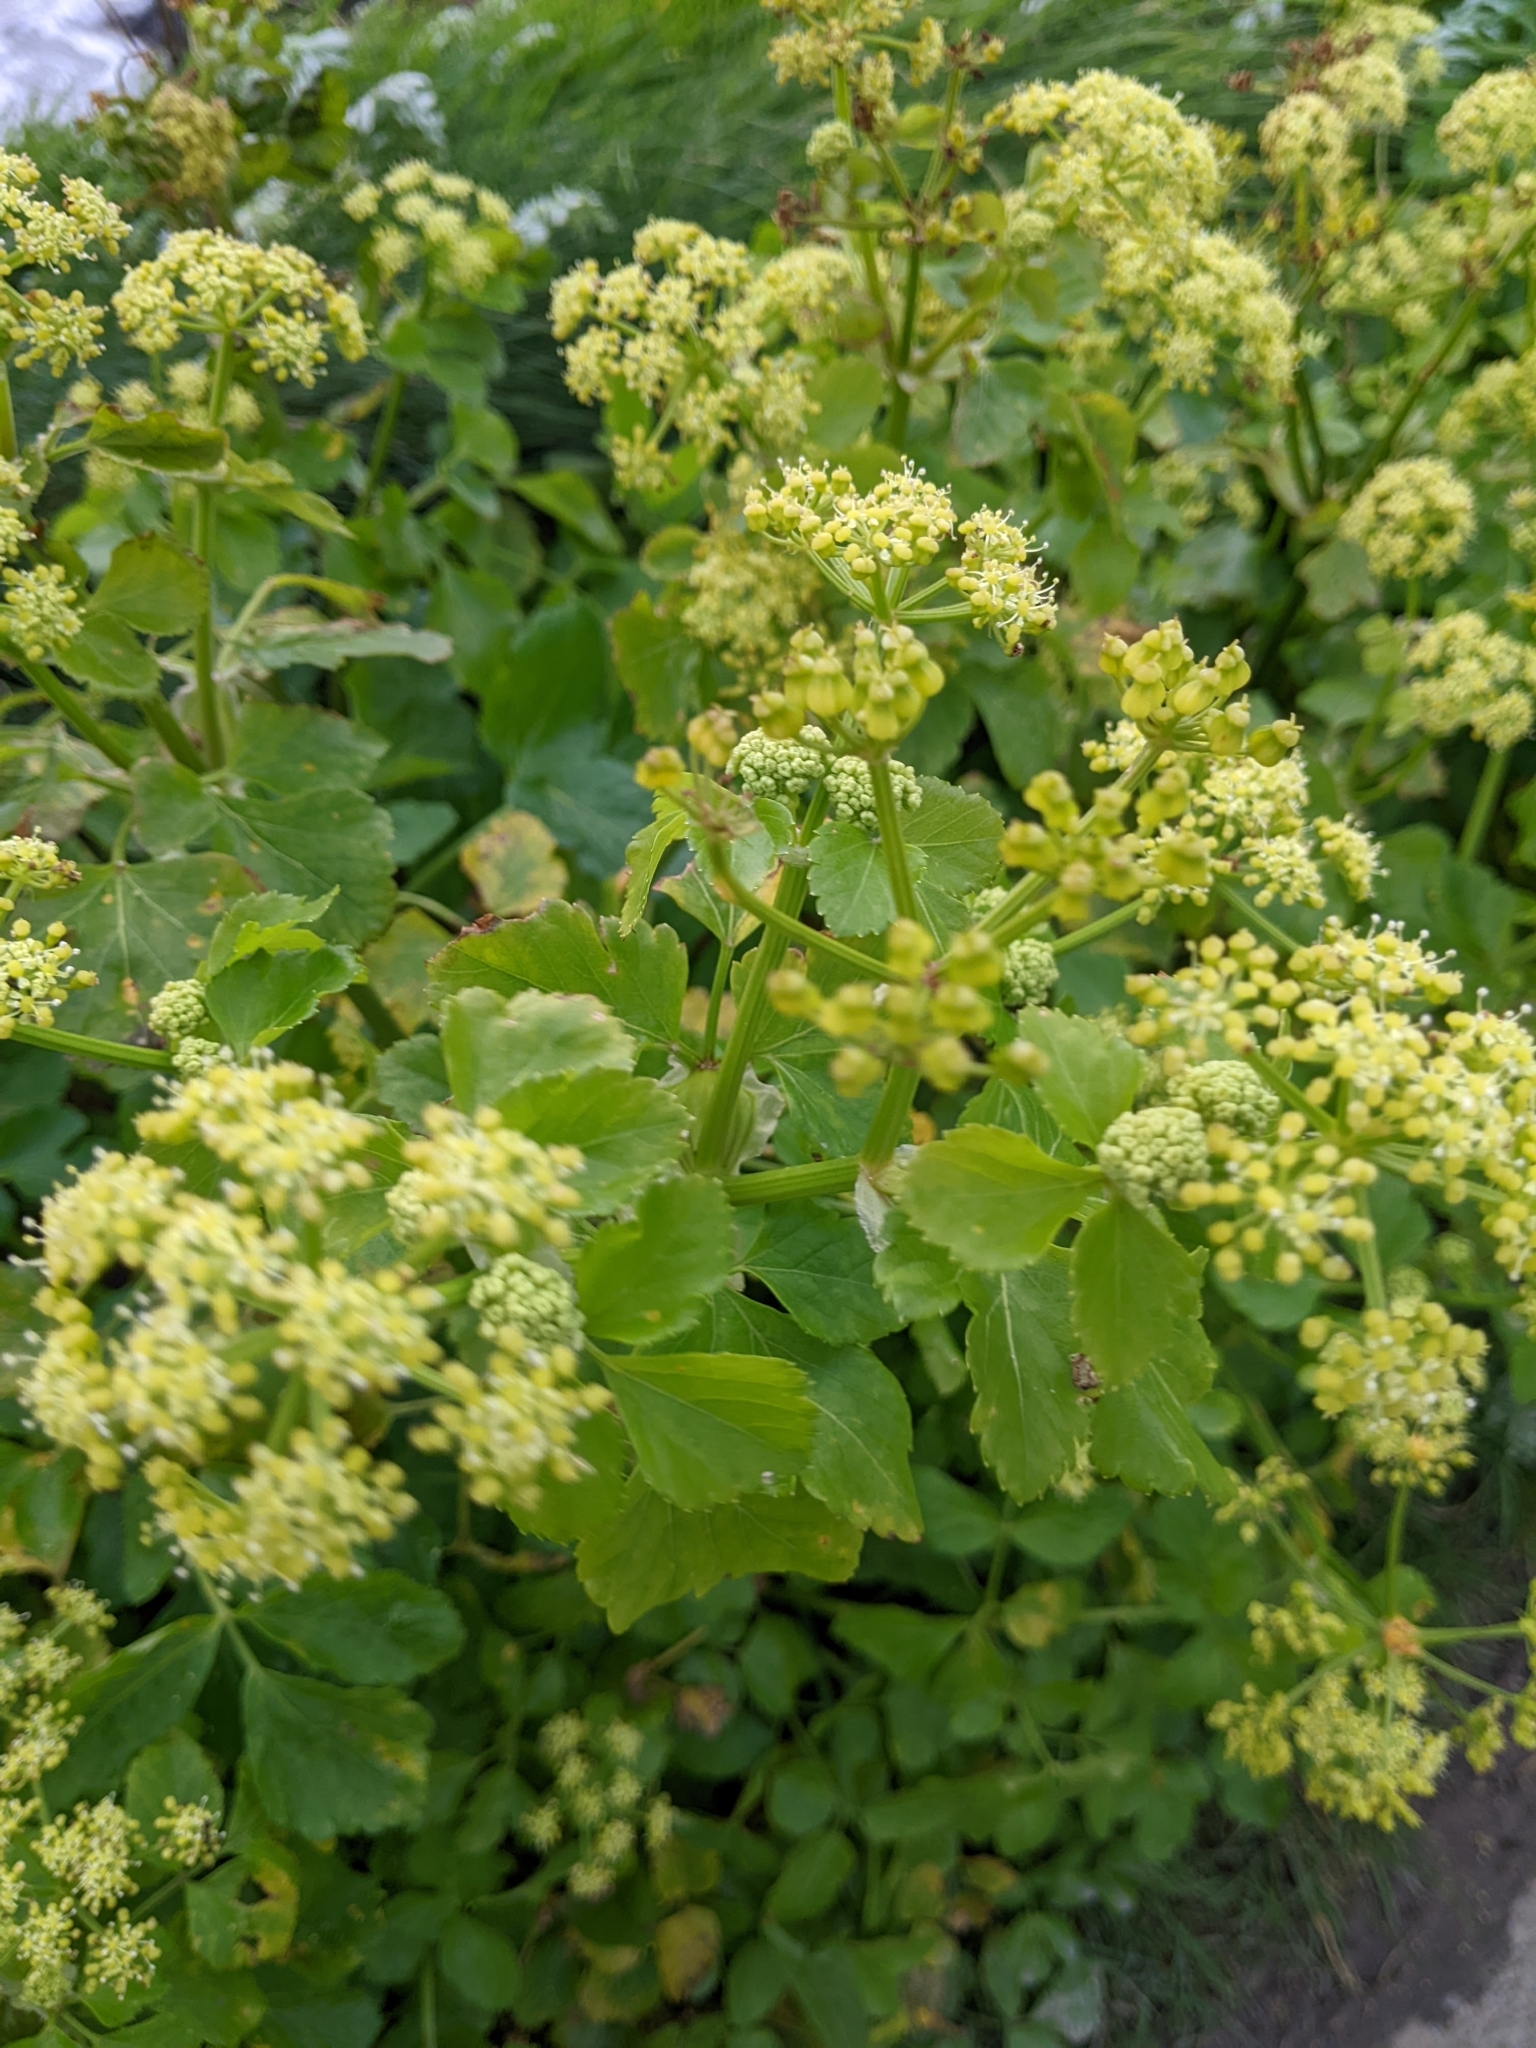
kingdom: Plantae
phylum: Tracheophyta
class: Magnoliopsida
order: Apiales
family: Apiaceae
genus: Smyrnium
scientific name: Smyrnium olusatrum
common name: Alexanders
